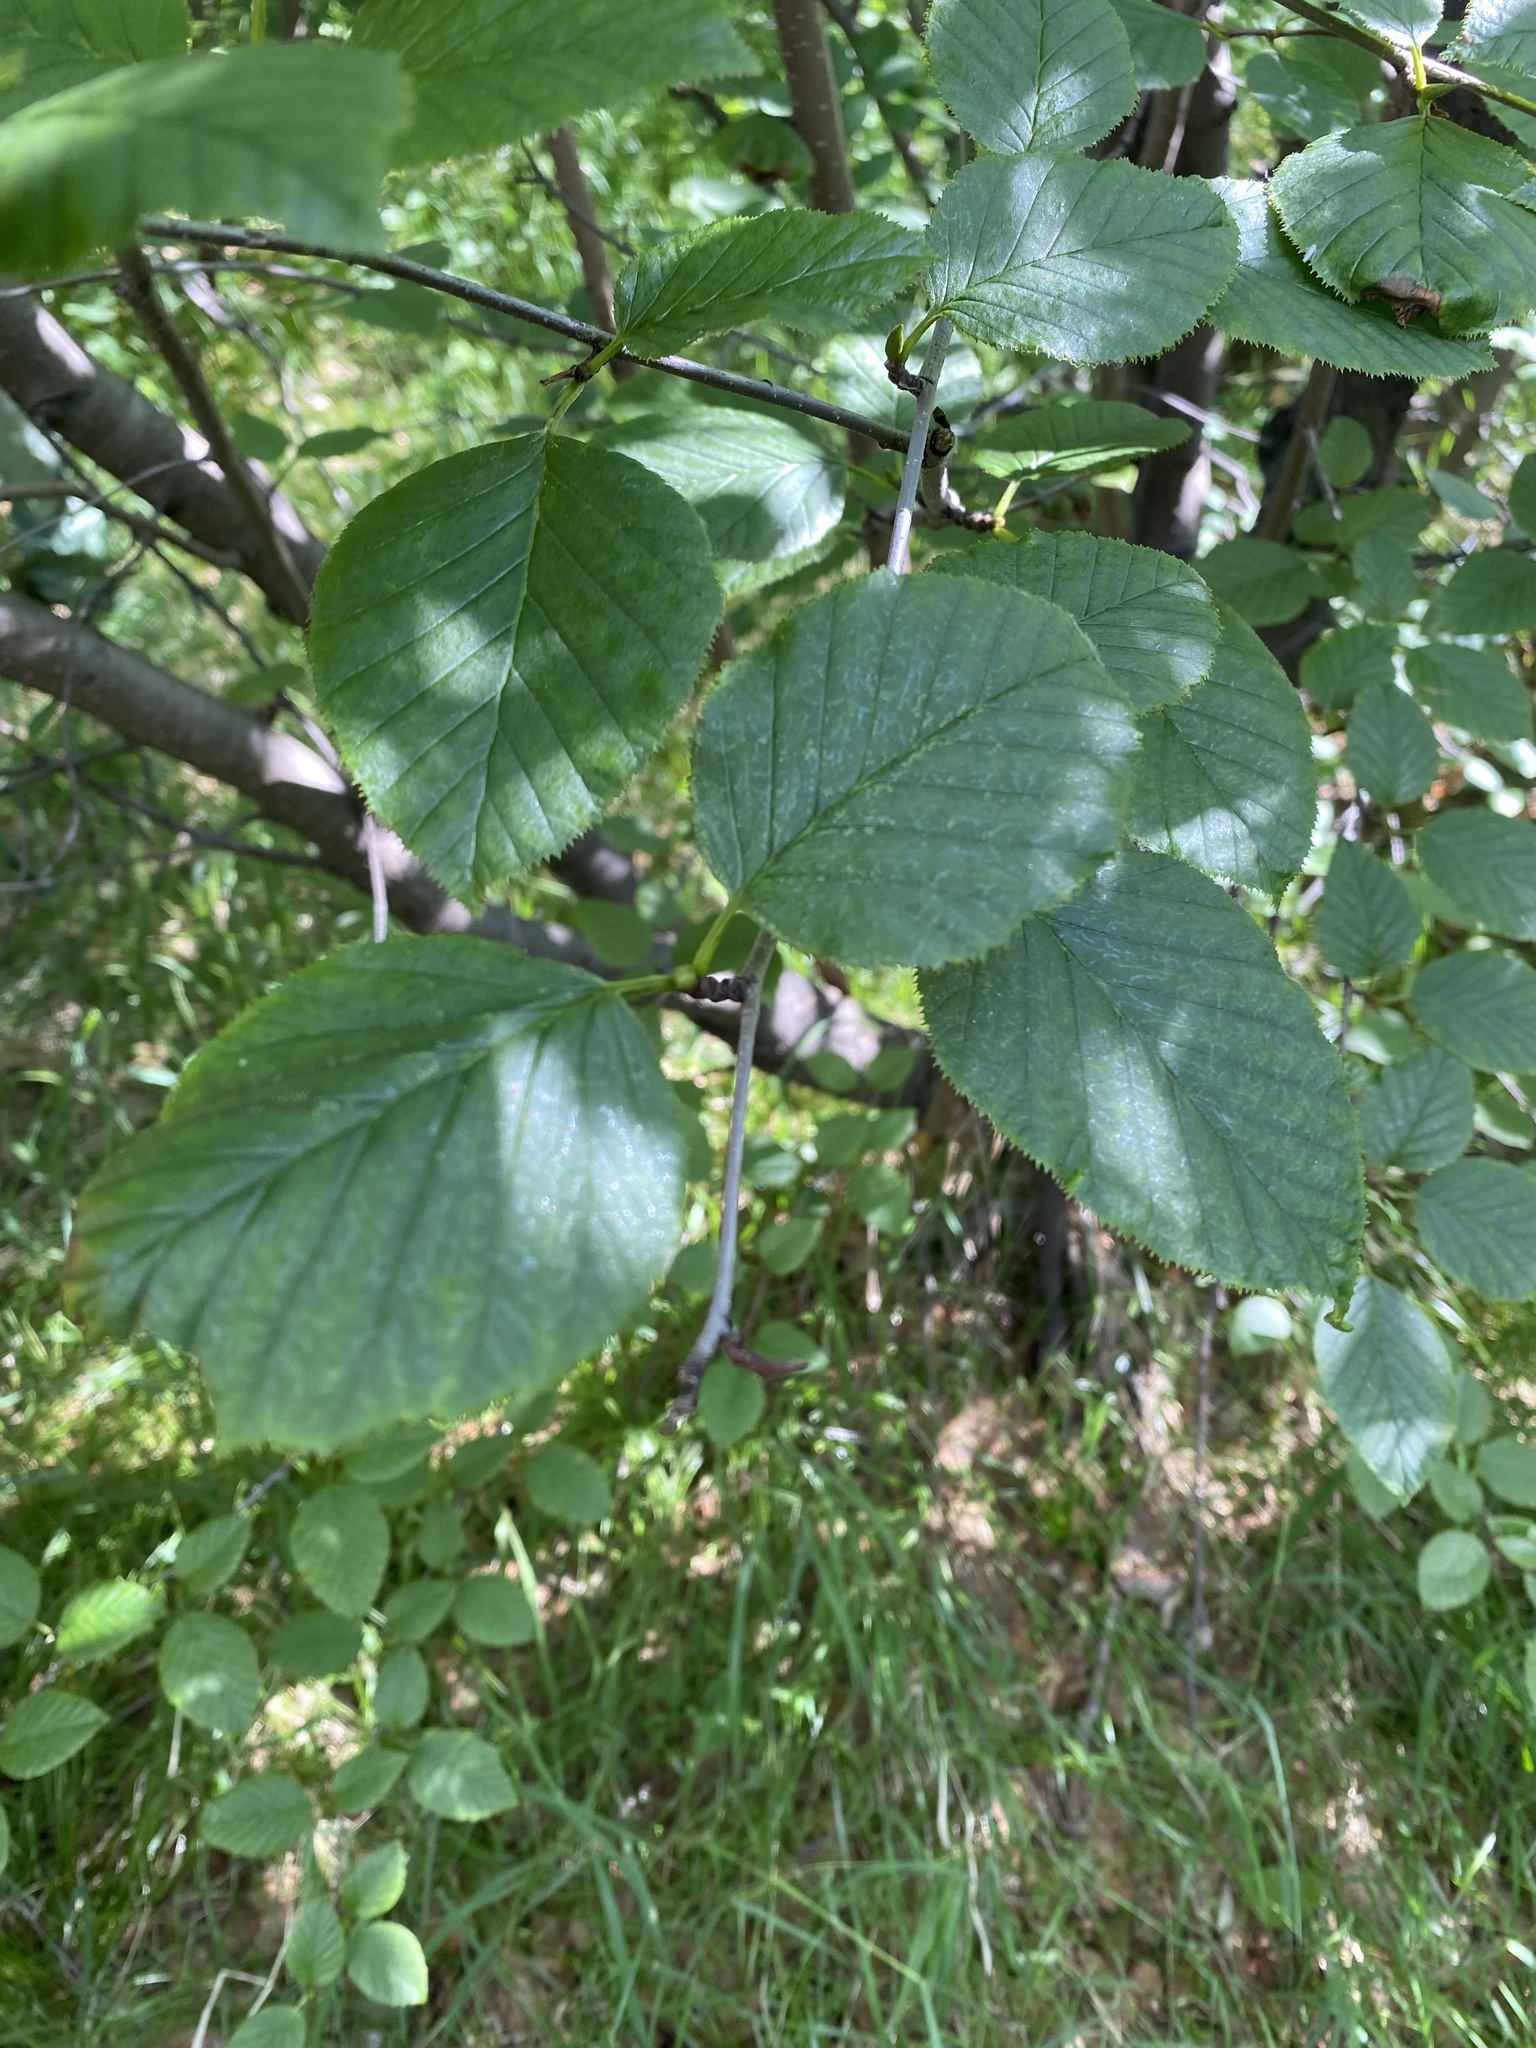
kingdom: Plantae
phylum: Tracheophyta
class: Magnoliopsida
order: Fagales
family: Betulaceae
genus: Alnus
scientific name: Alnus alnobetula
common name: Green alder
